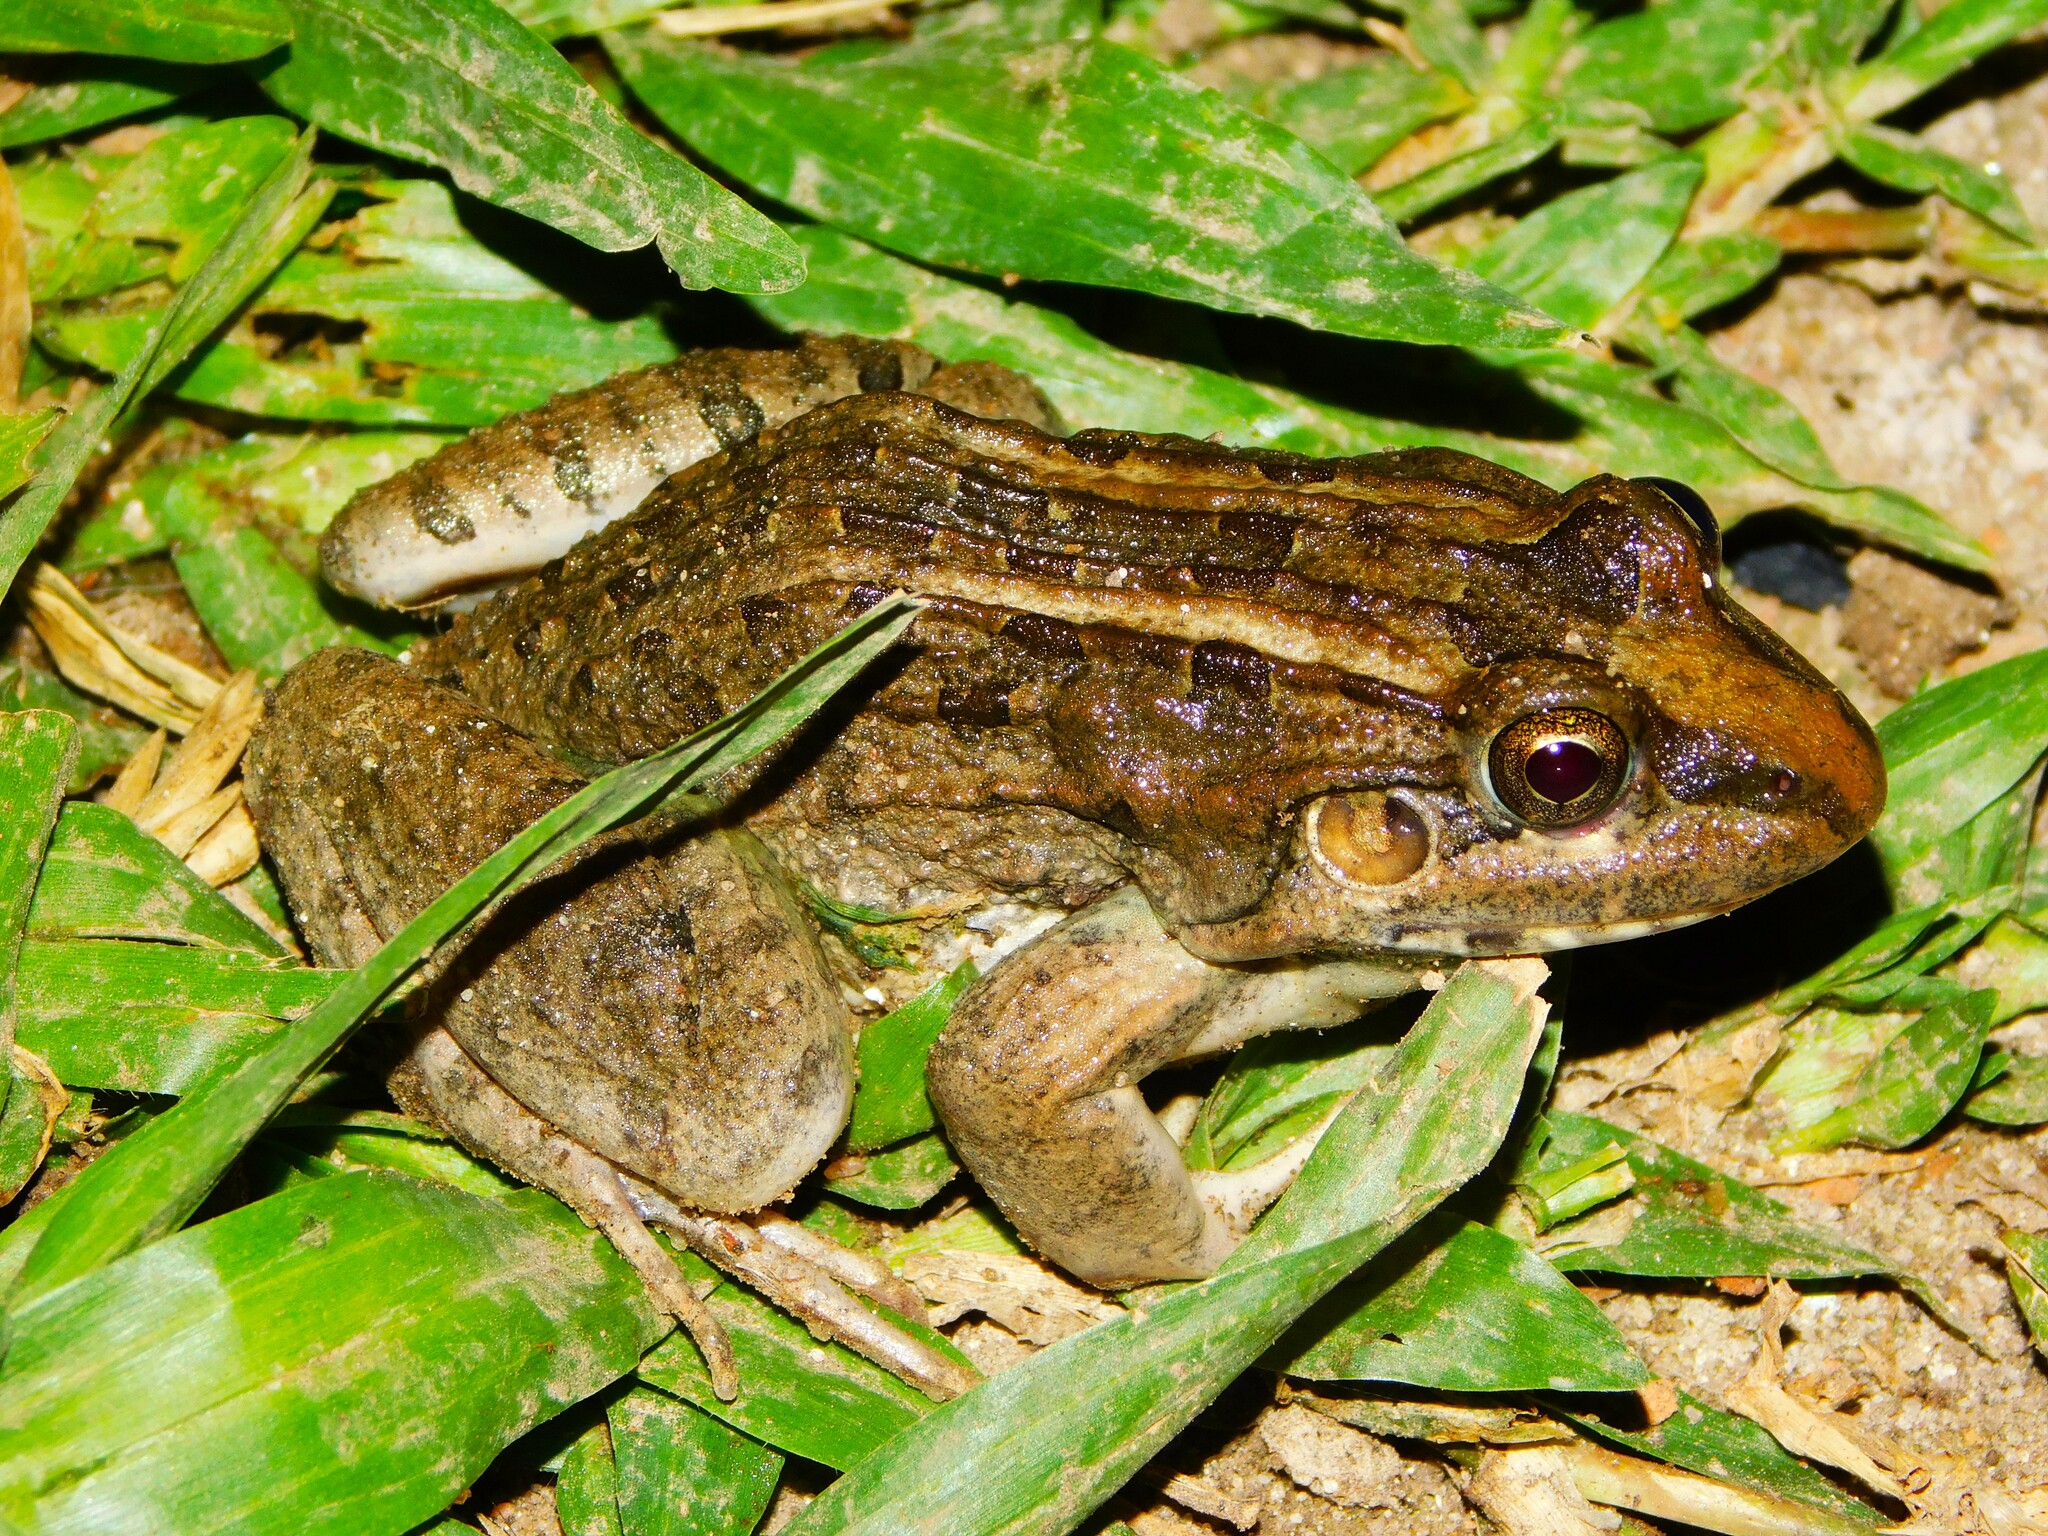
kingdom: Animalia
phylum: Chordata
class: Amphibia
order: Anura
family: Leptodactylidae
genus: Leptodactylus
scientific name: Leptodactylus macrosternum
